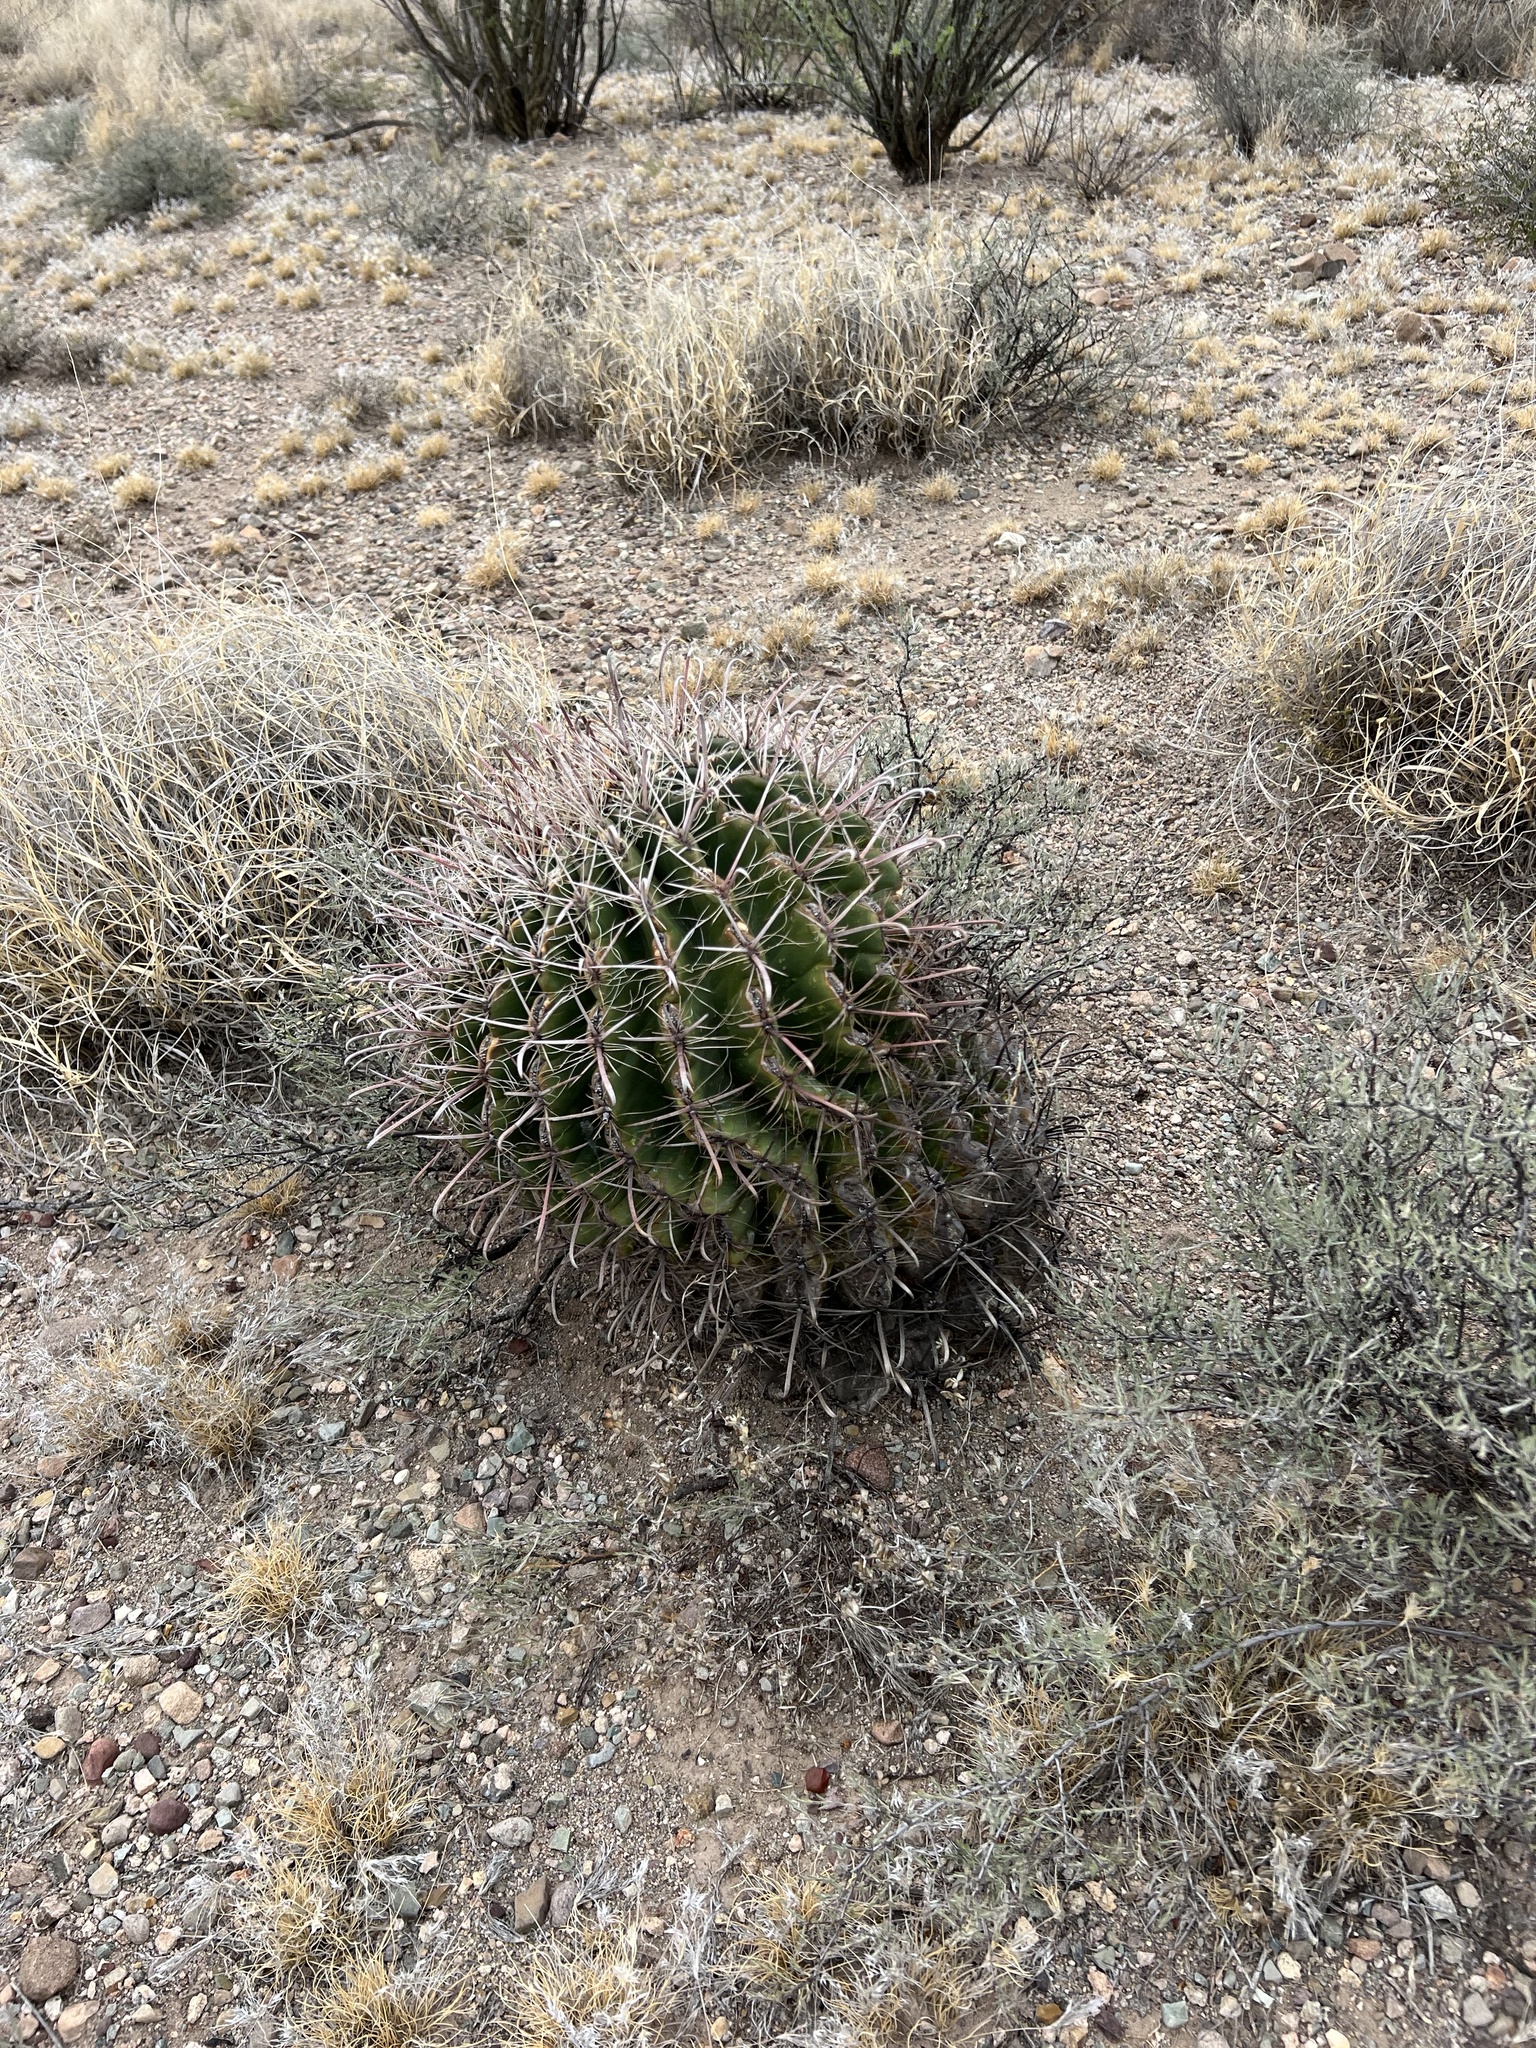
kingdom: Plantae
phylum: Tracheophyta
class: Magnoliopsida
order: Caryophyllales
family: Cactaceae
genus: Ferocactus
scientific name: Ferocactus wislizeni
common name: Candy barrel cactus
